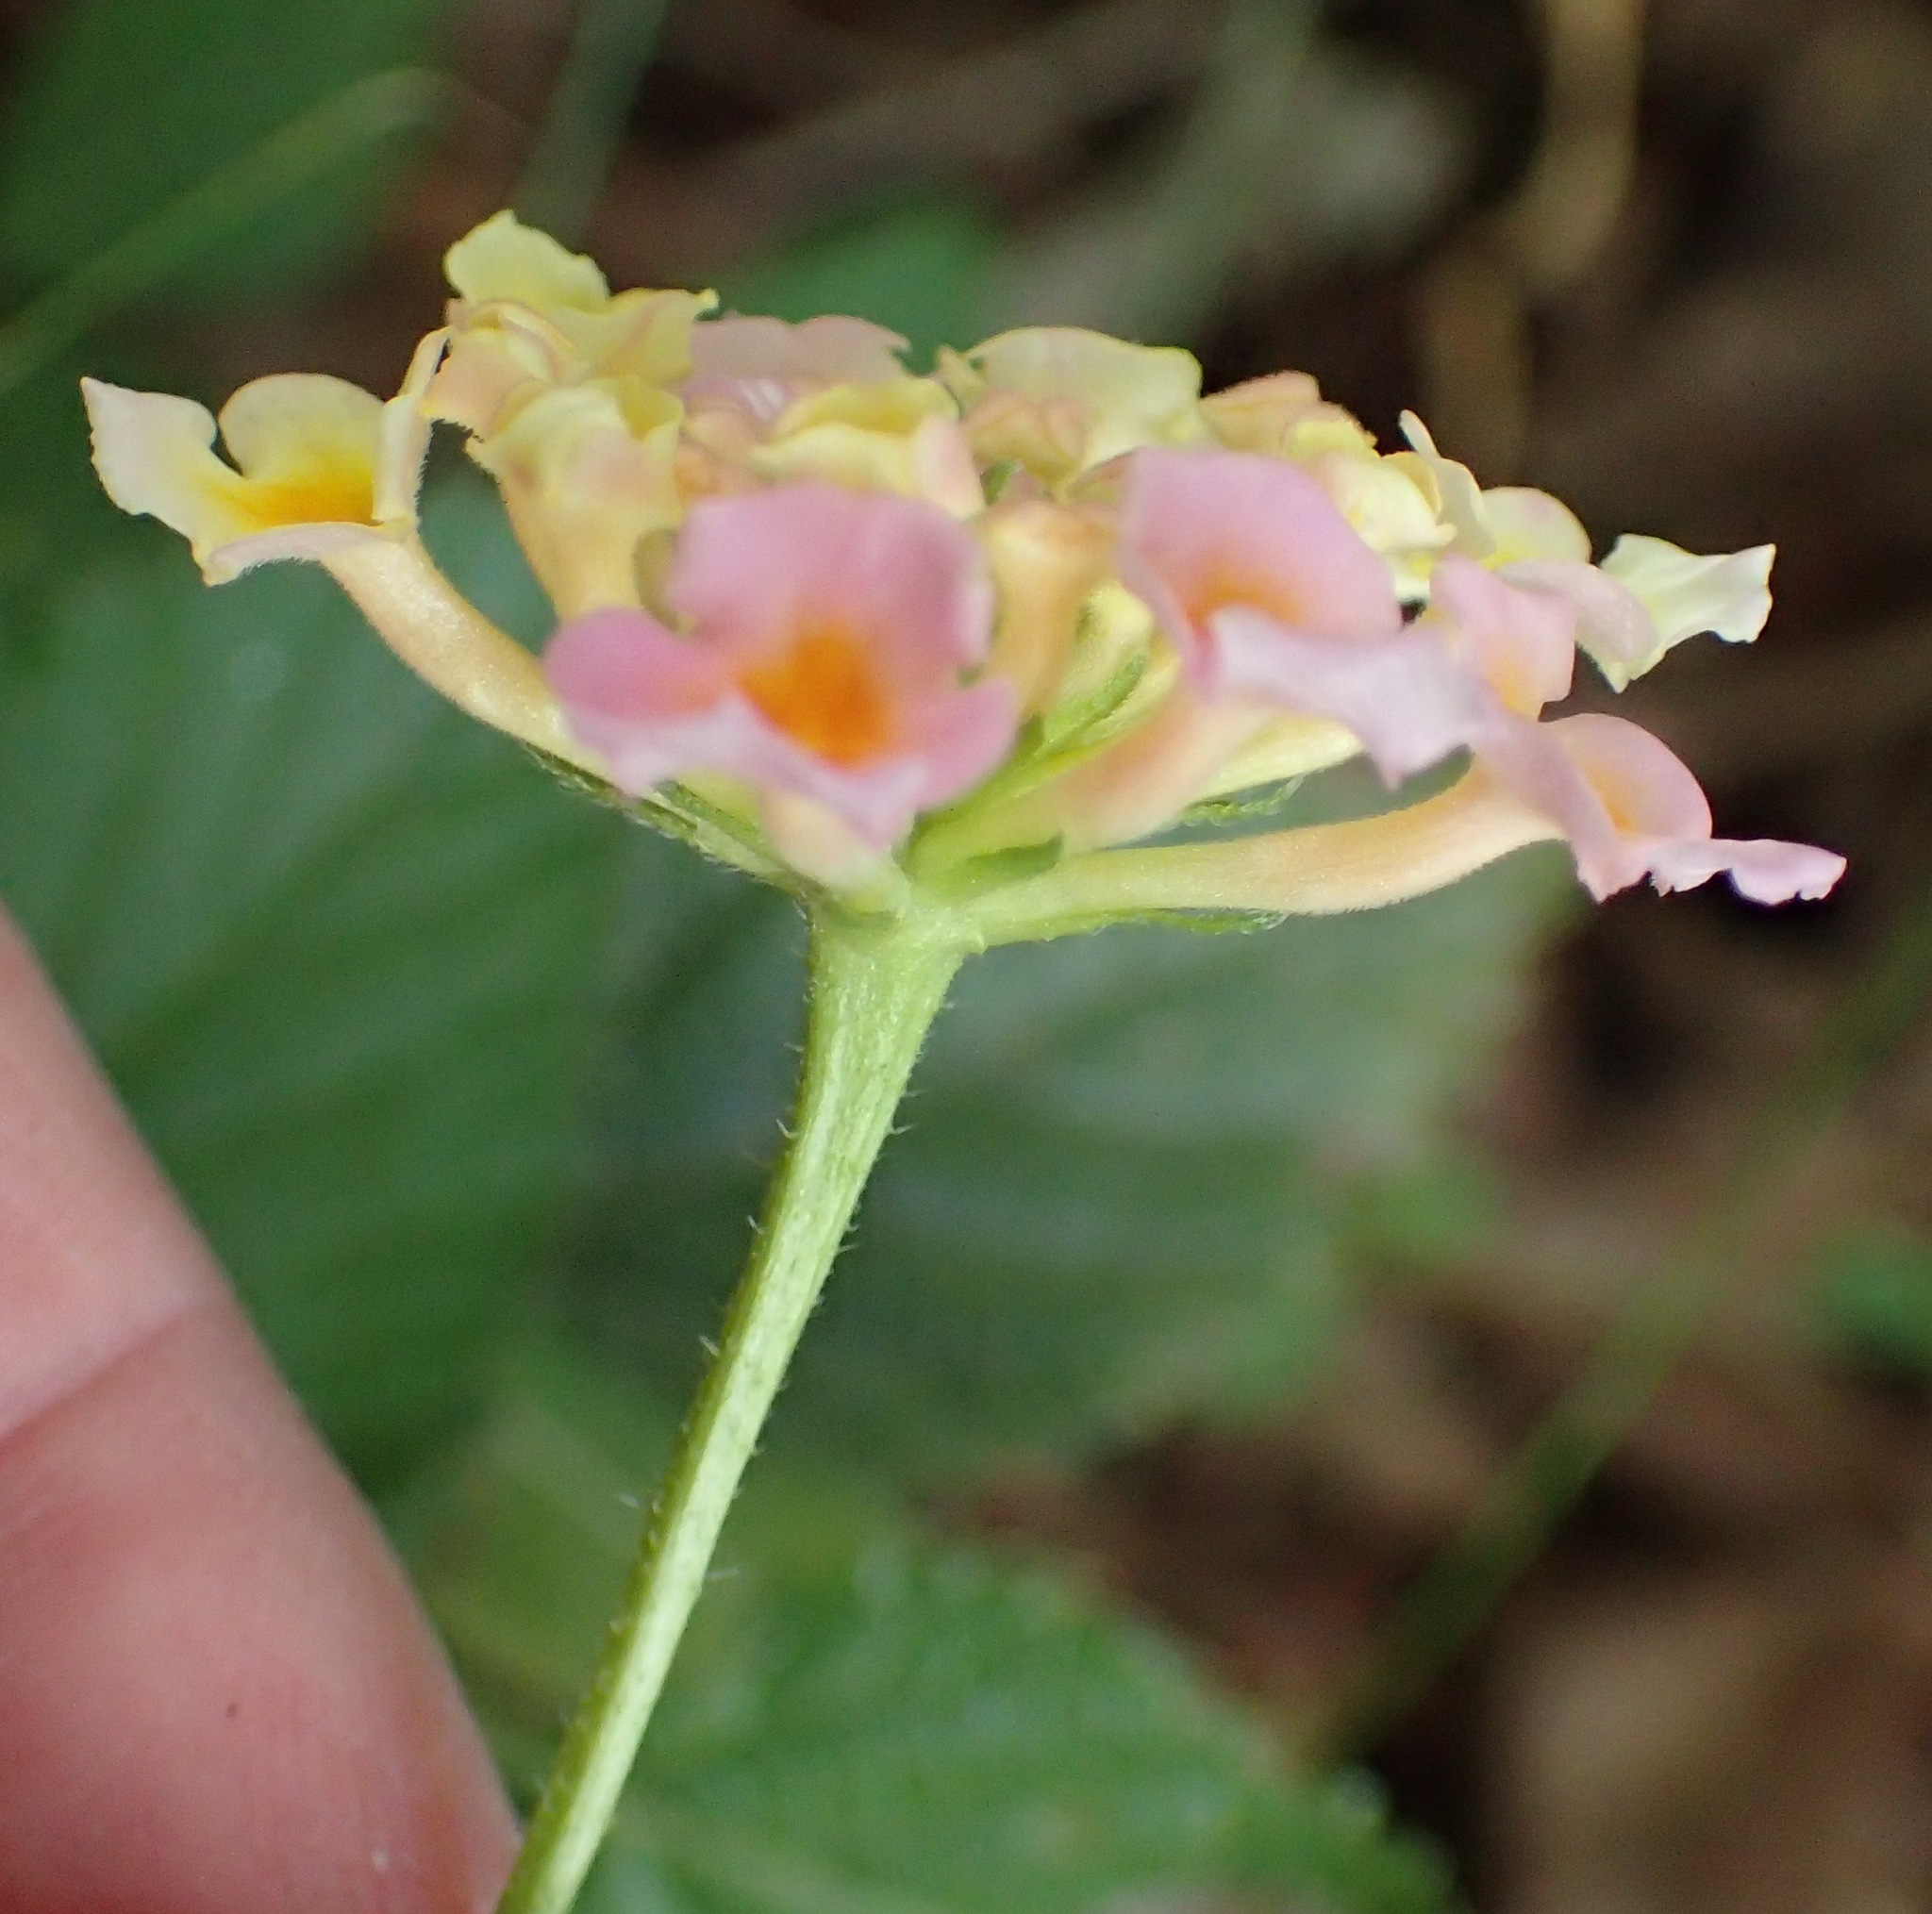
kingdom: Plantae
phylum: Tracheophyta
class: Magnoliopsida
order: Lamiales
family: Verbenaceae
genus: Lantana
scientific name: Lantana strigocamara
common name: Lantana
